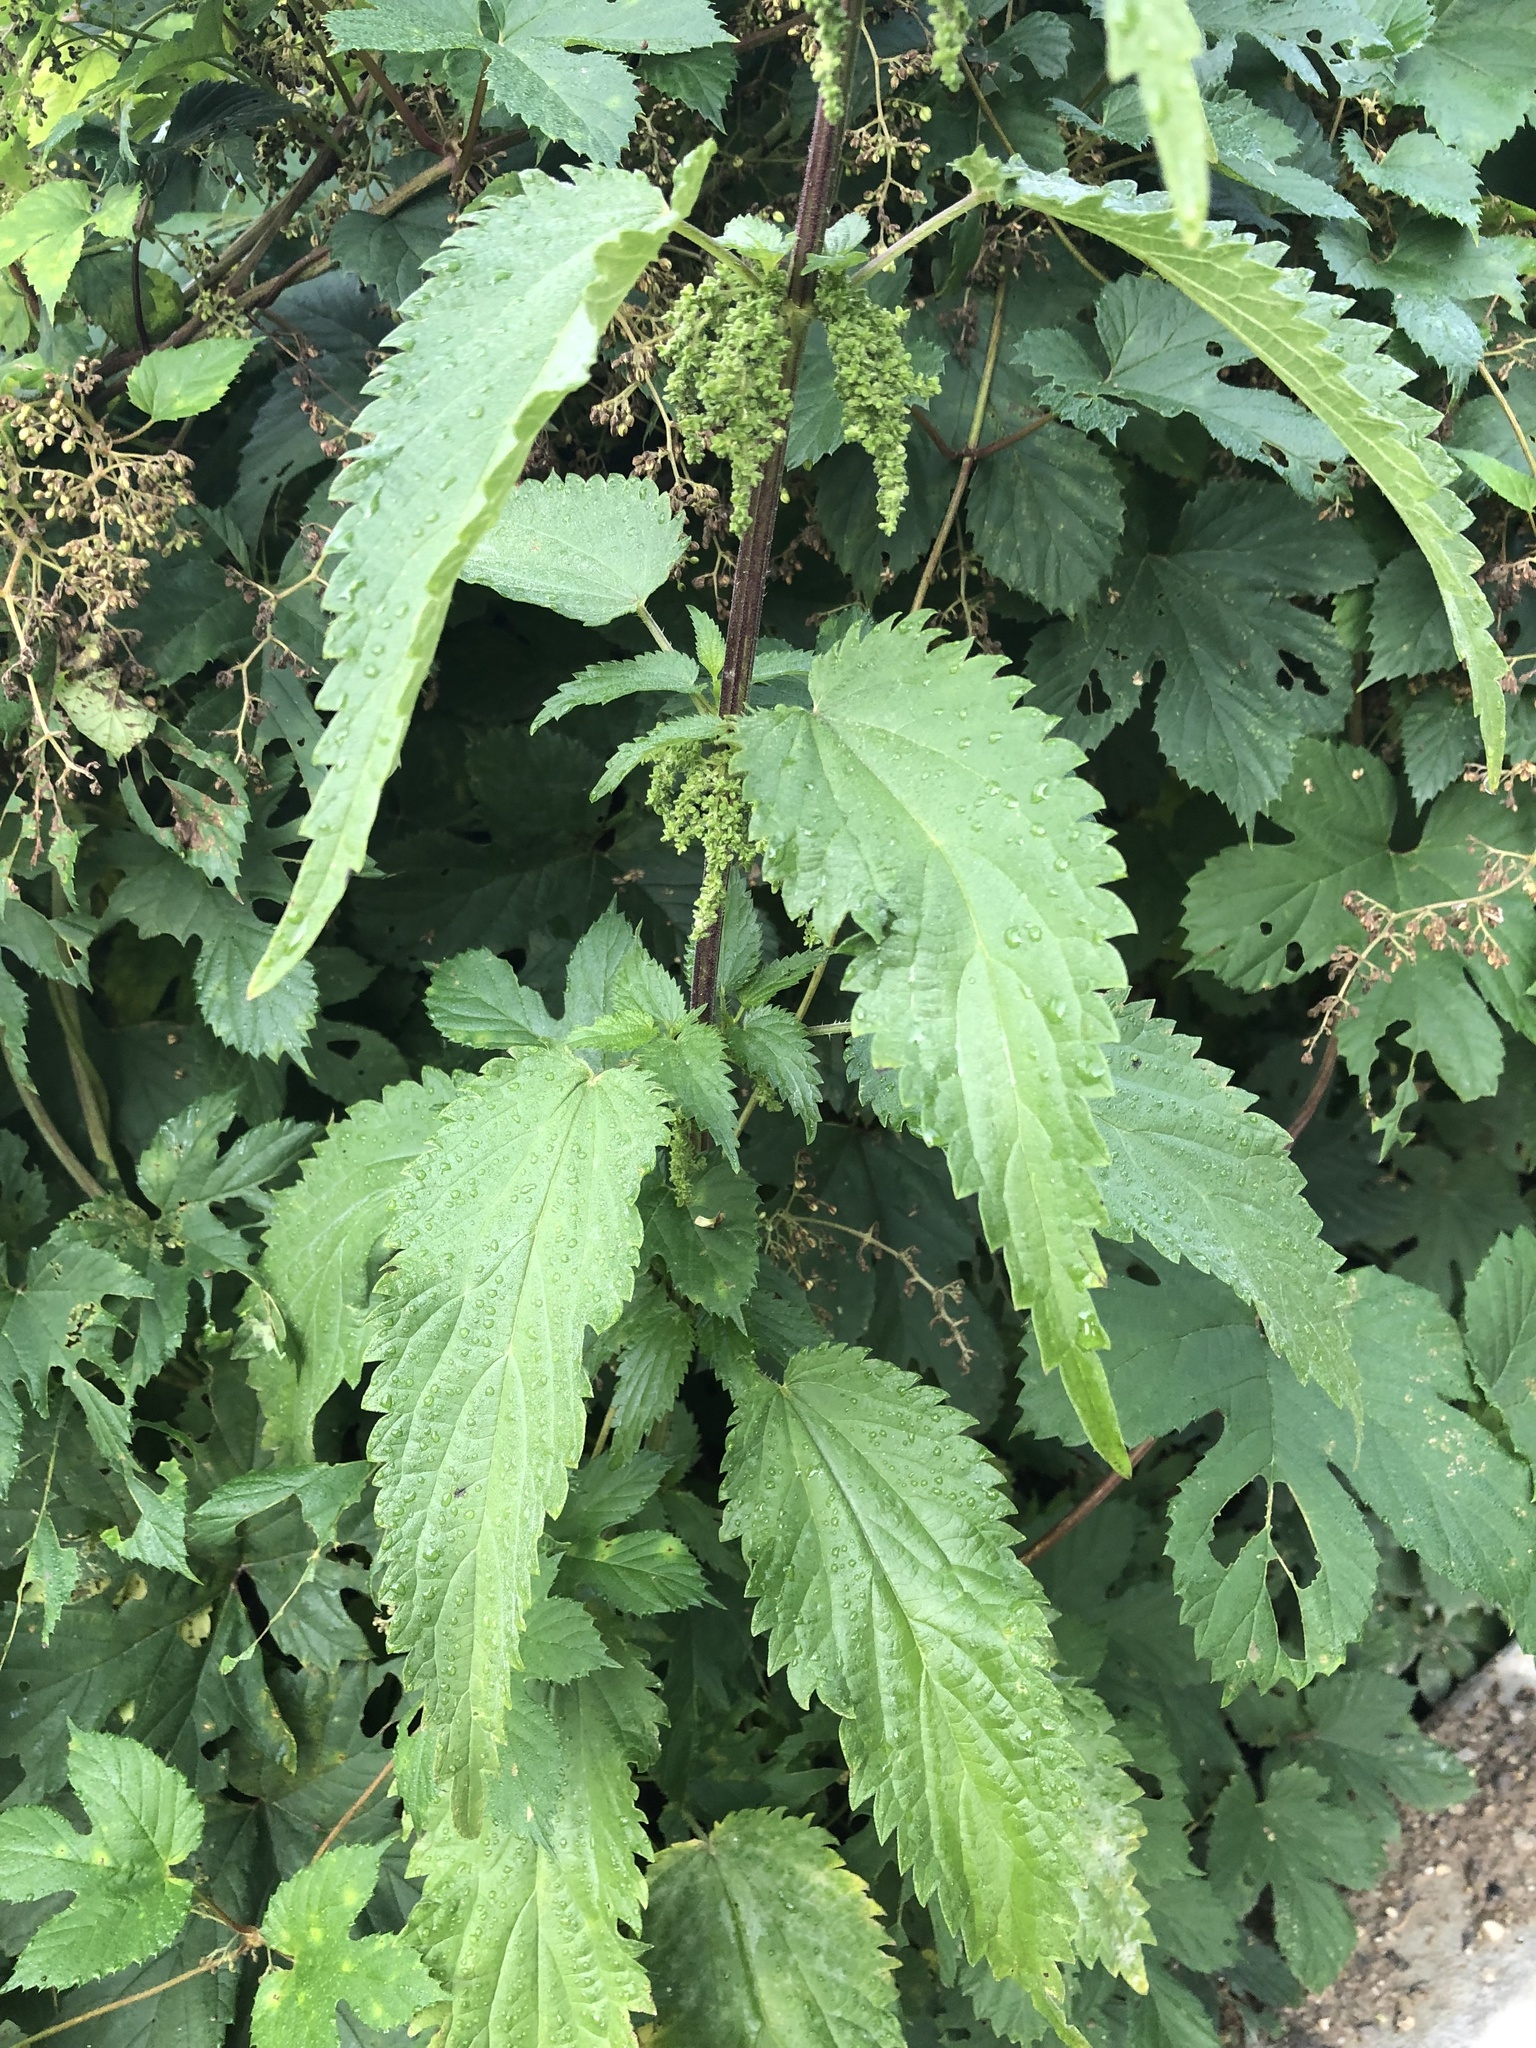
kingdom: Plantae
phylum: Tracheophyta
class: Magnoliopsida
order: Rosales
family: Urticaceae
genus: Urtica
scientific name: Urtica dioica
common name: Common nettle
